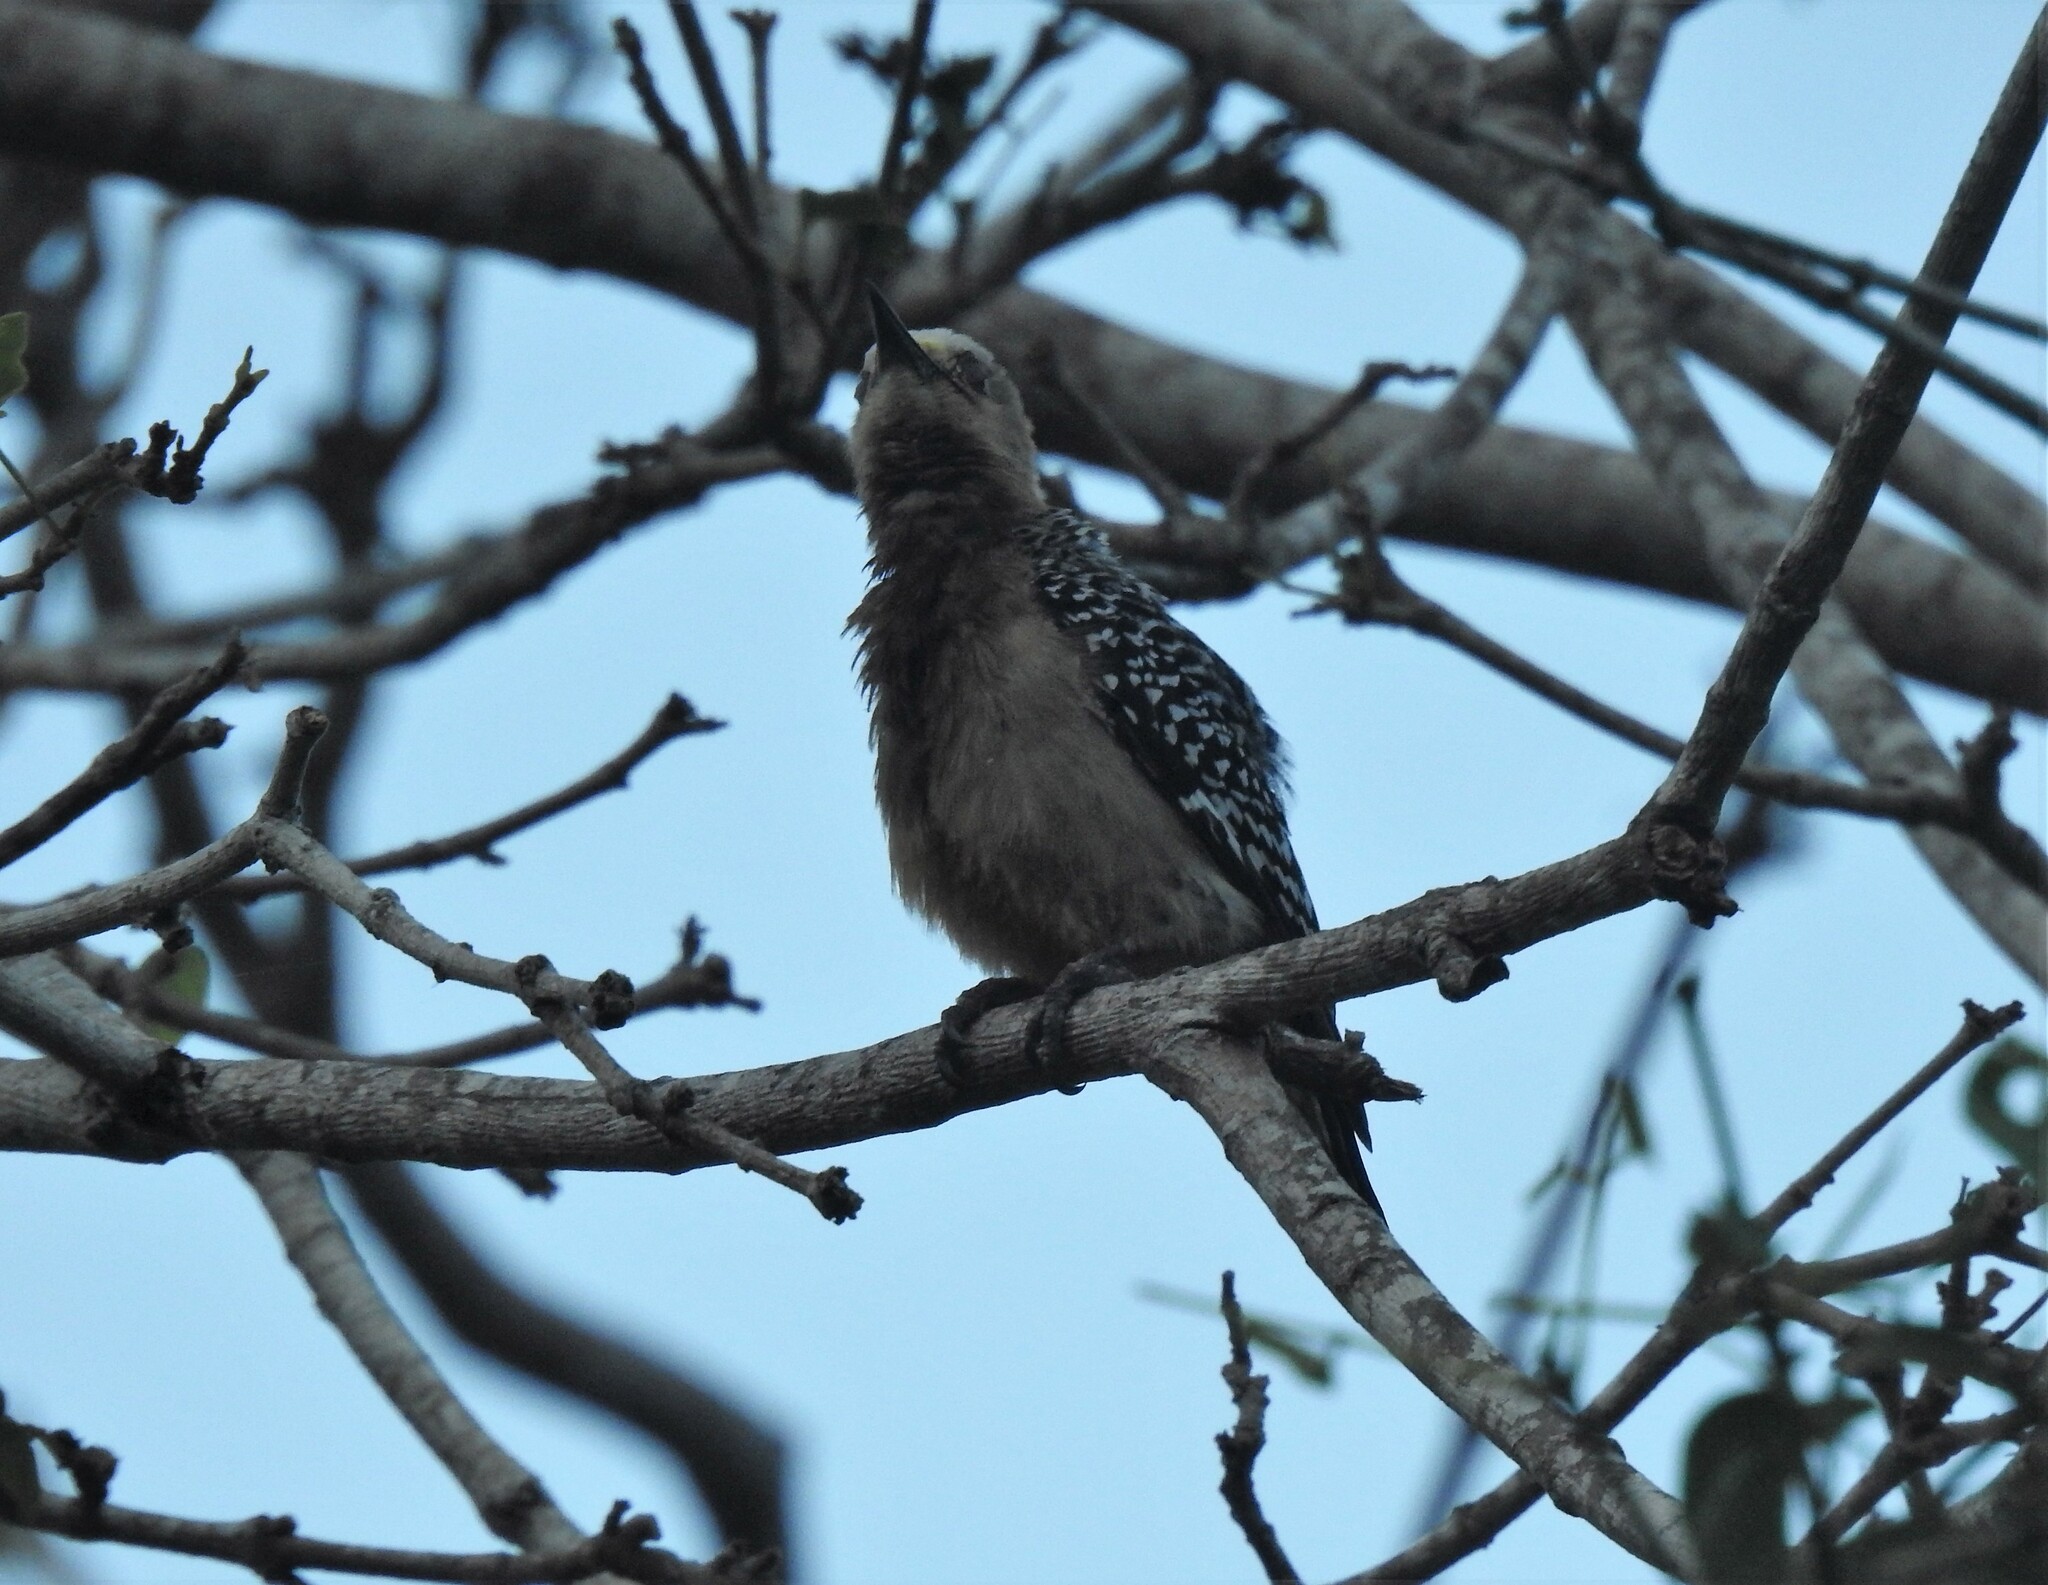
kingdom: Animalia
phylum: Chordata
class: Aves
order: Piciformes
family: Picidae
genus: Melanerpes
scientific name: Melanerpes rubricapillus
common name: Red-crowned woodpecker
